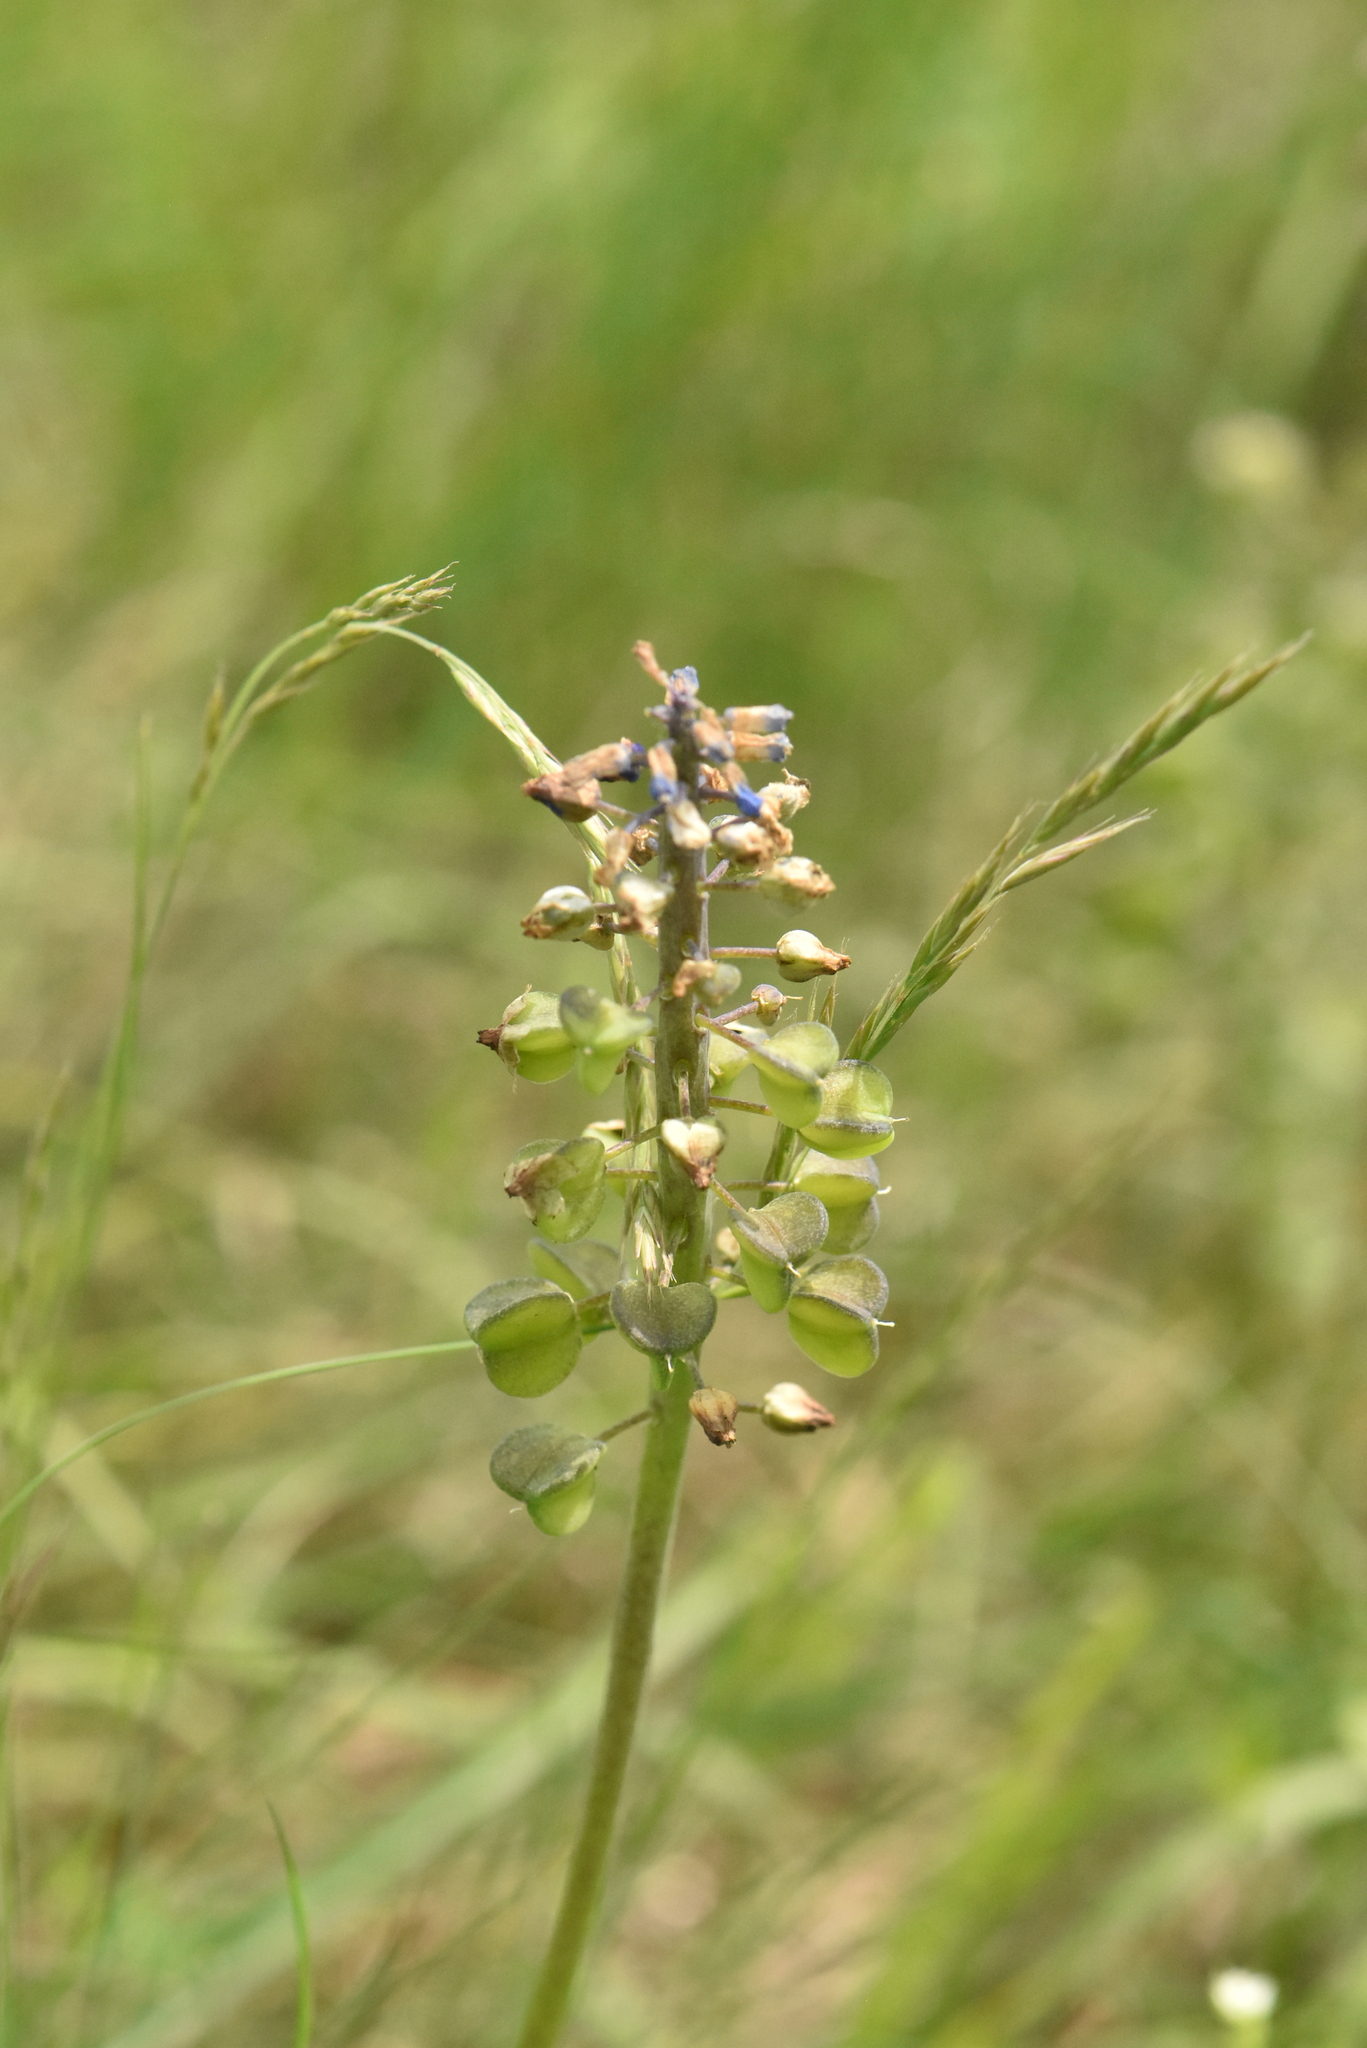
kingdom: Plantae
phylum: Tracheophyta
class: Liliopsida
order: Asparagales
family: Asparagaceae
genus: Muscari
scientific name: Muscari neglectum
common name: Grape-hyacinth
